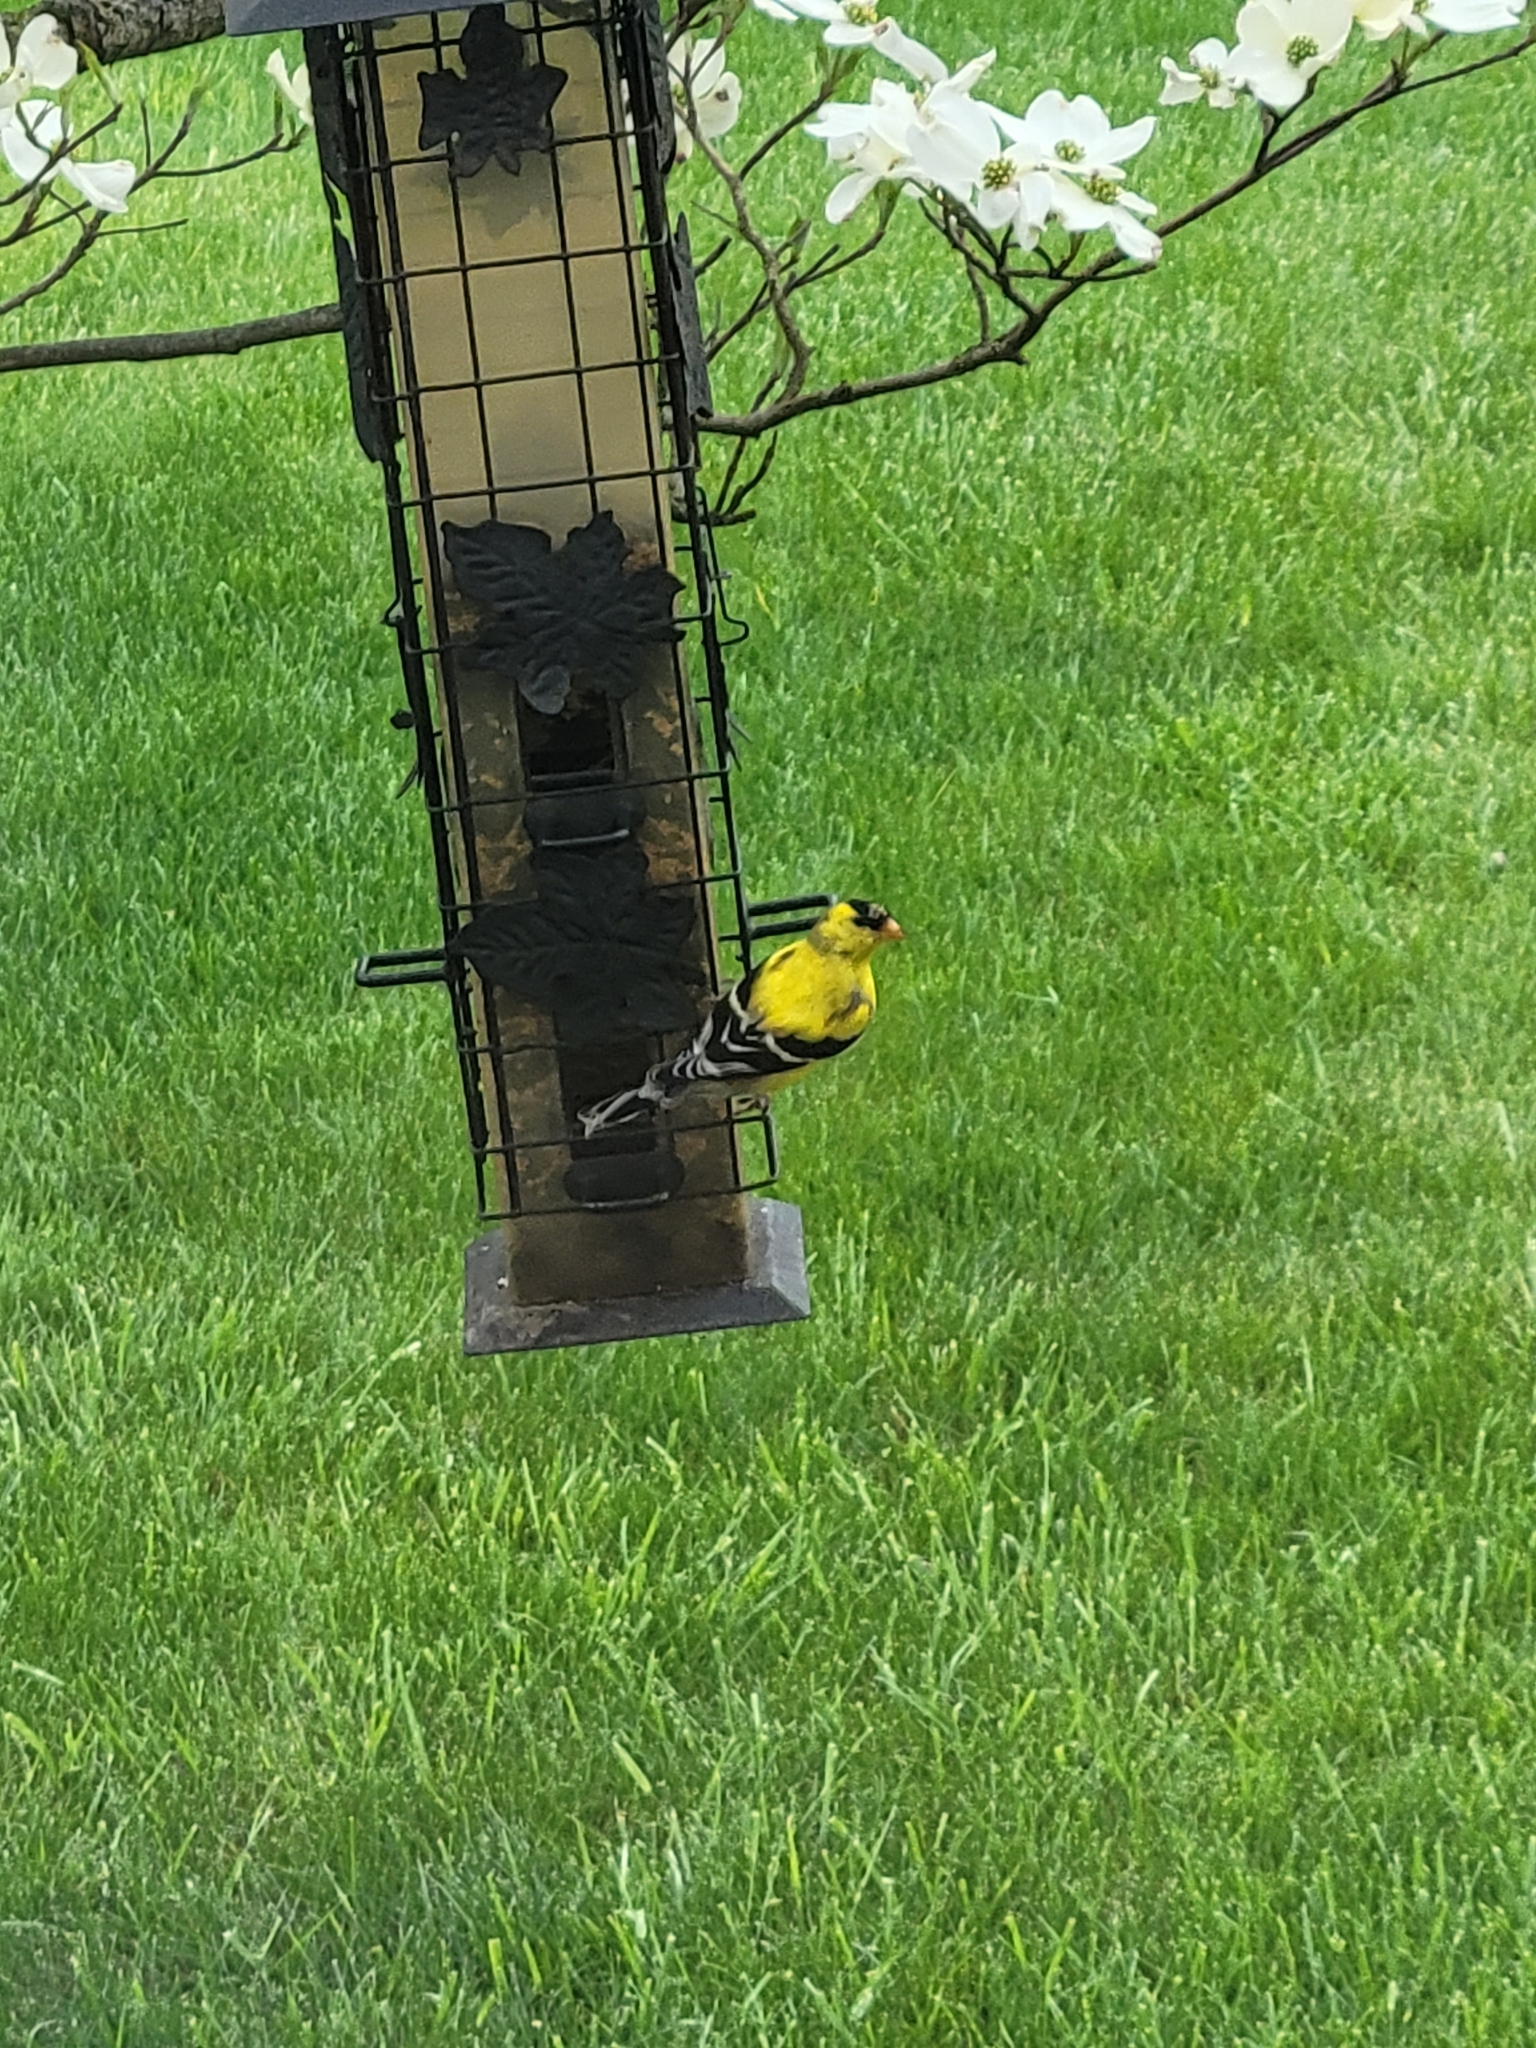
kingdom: Animalia
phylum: Chordata
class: Aves
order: Passeriformes
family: Fringillidae
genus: Spinus
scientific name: Spinus tristis
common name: American goldfinch
